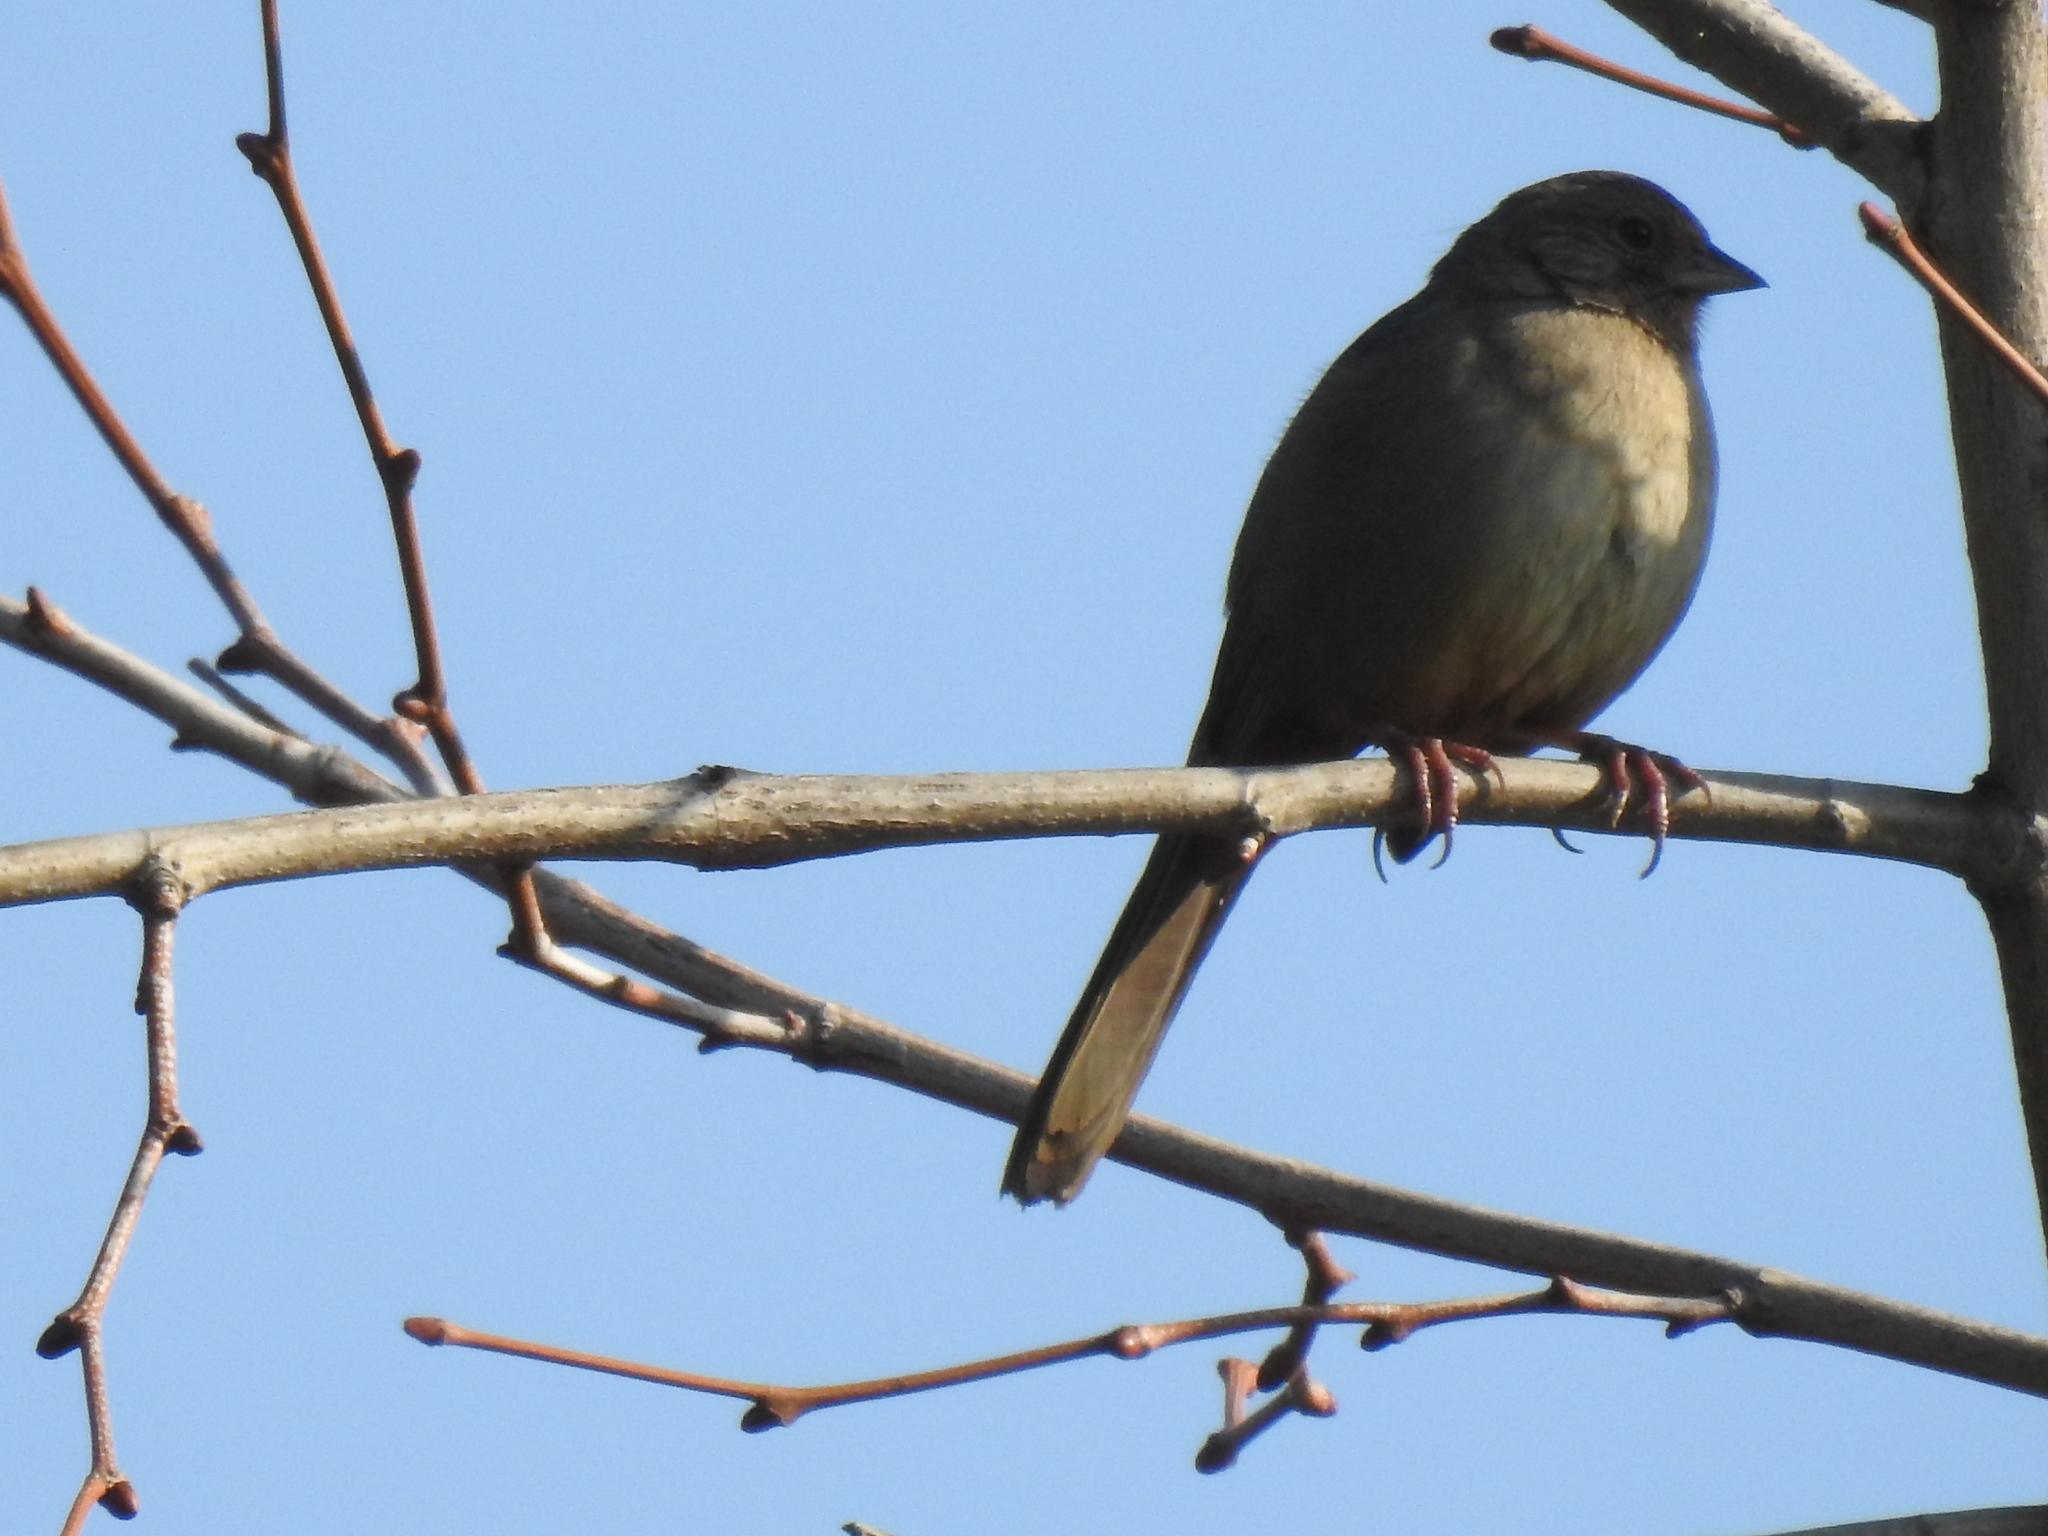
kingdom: Animalia
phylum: Chordata
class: Aves
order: Passeriformes
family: Passerellidae
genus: Melozone
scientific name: Melozone crissalis
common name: California towhee
